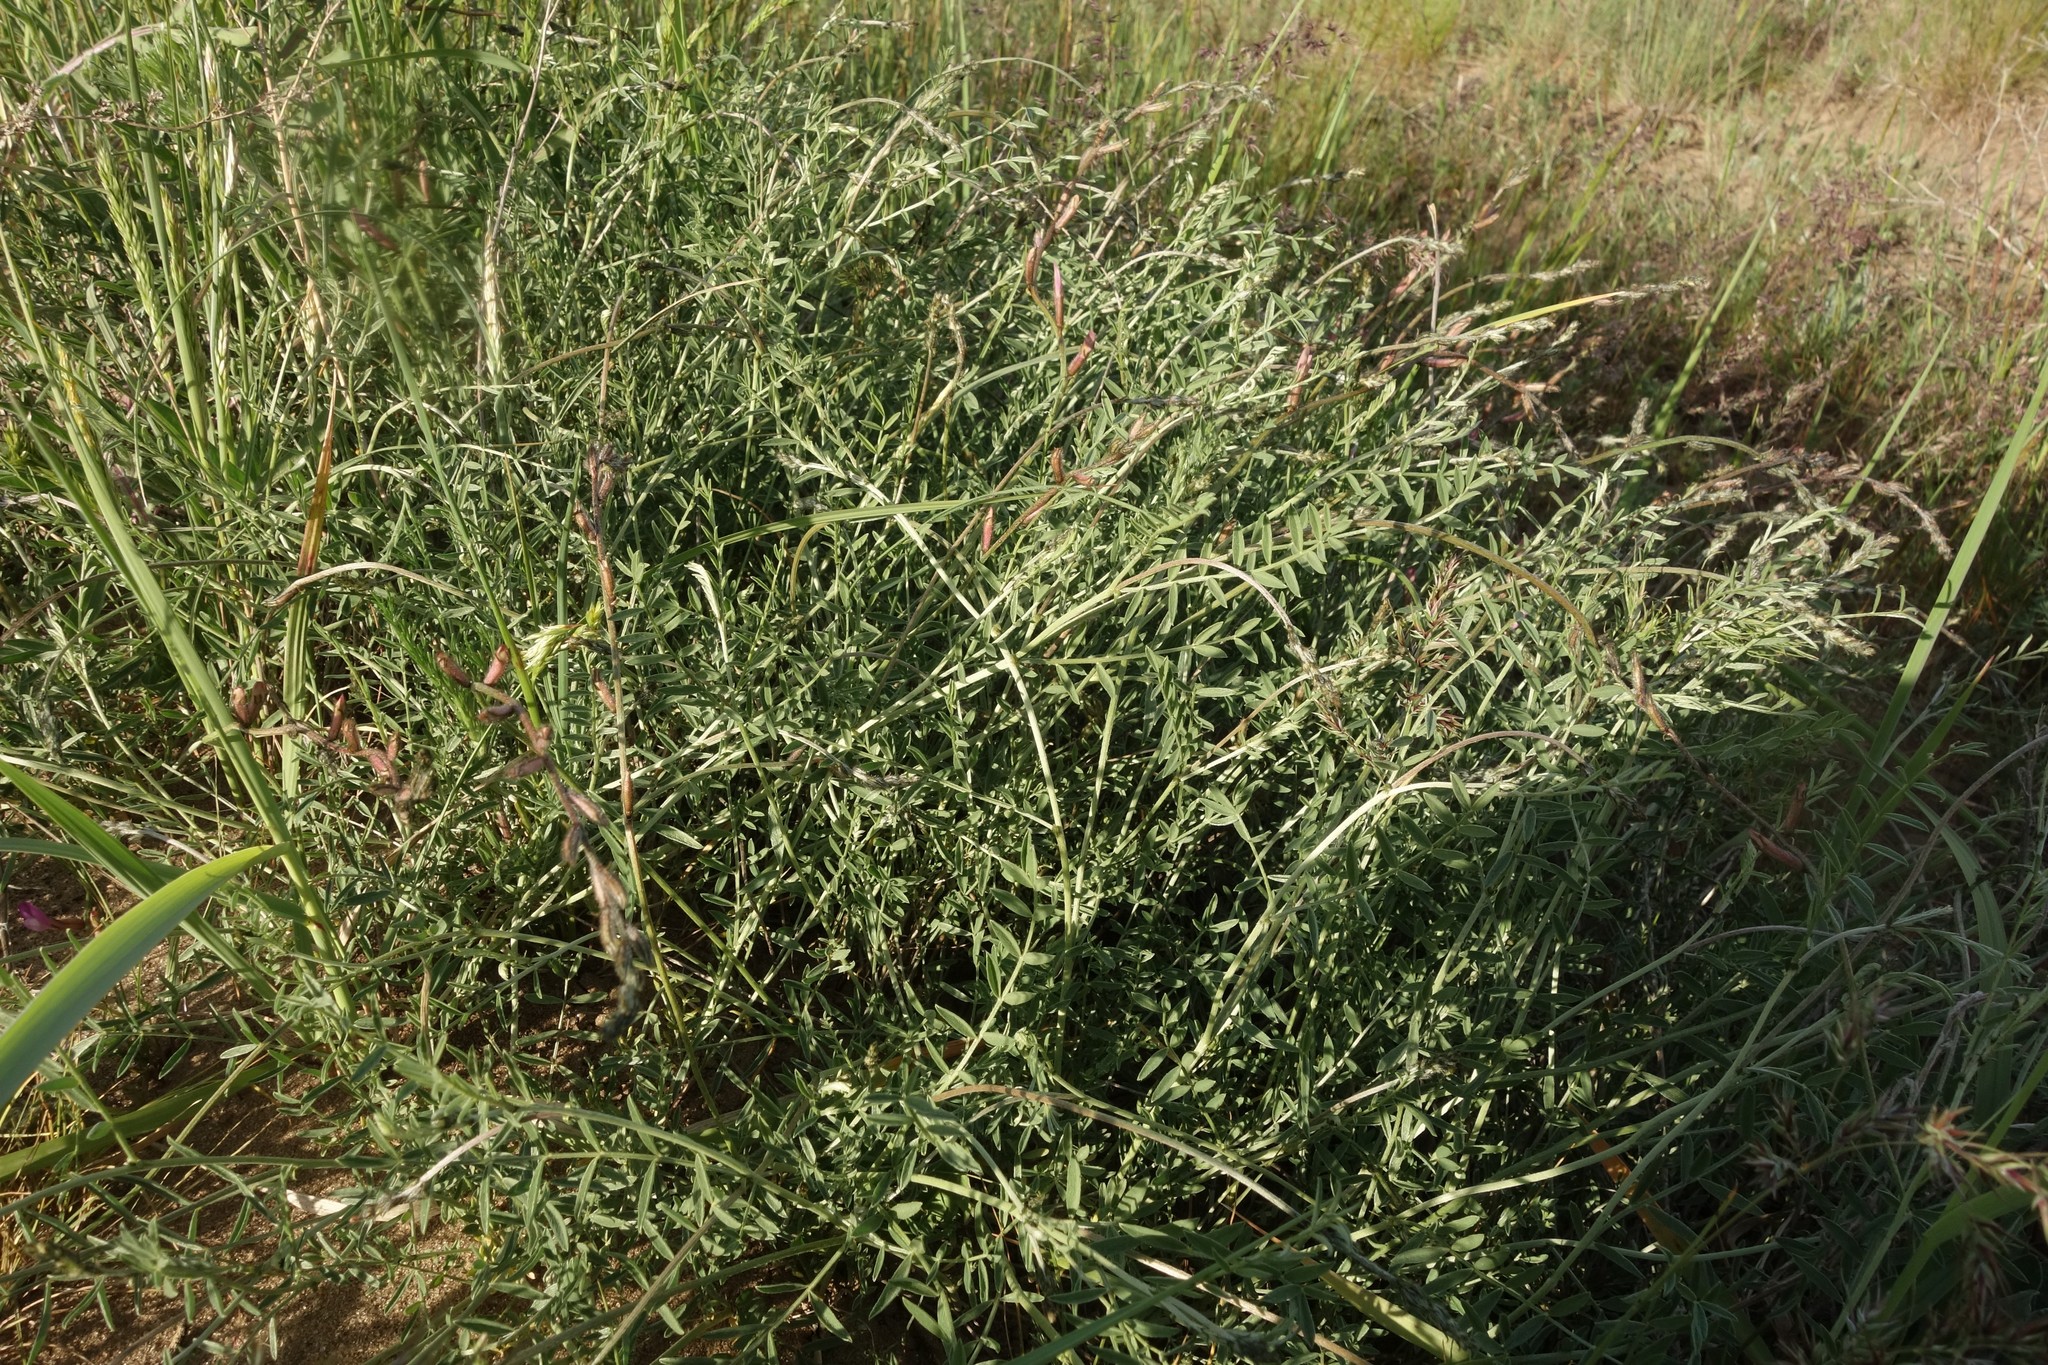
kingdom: Plantae
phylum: Tracheophyta
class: Magnoliopsida
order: Fabales
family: Fabaceae
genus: Astragalus
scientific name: Astragalus varius
